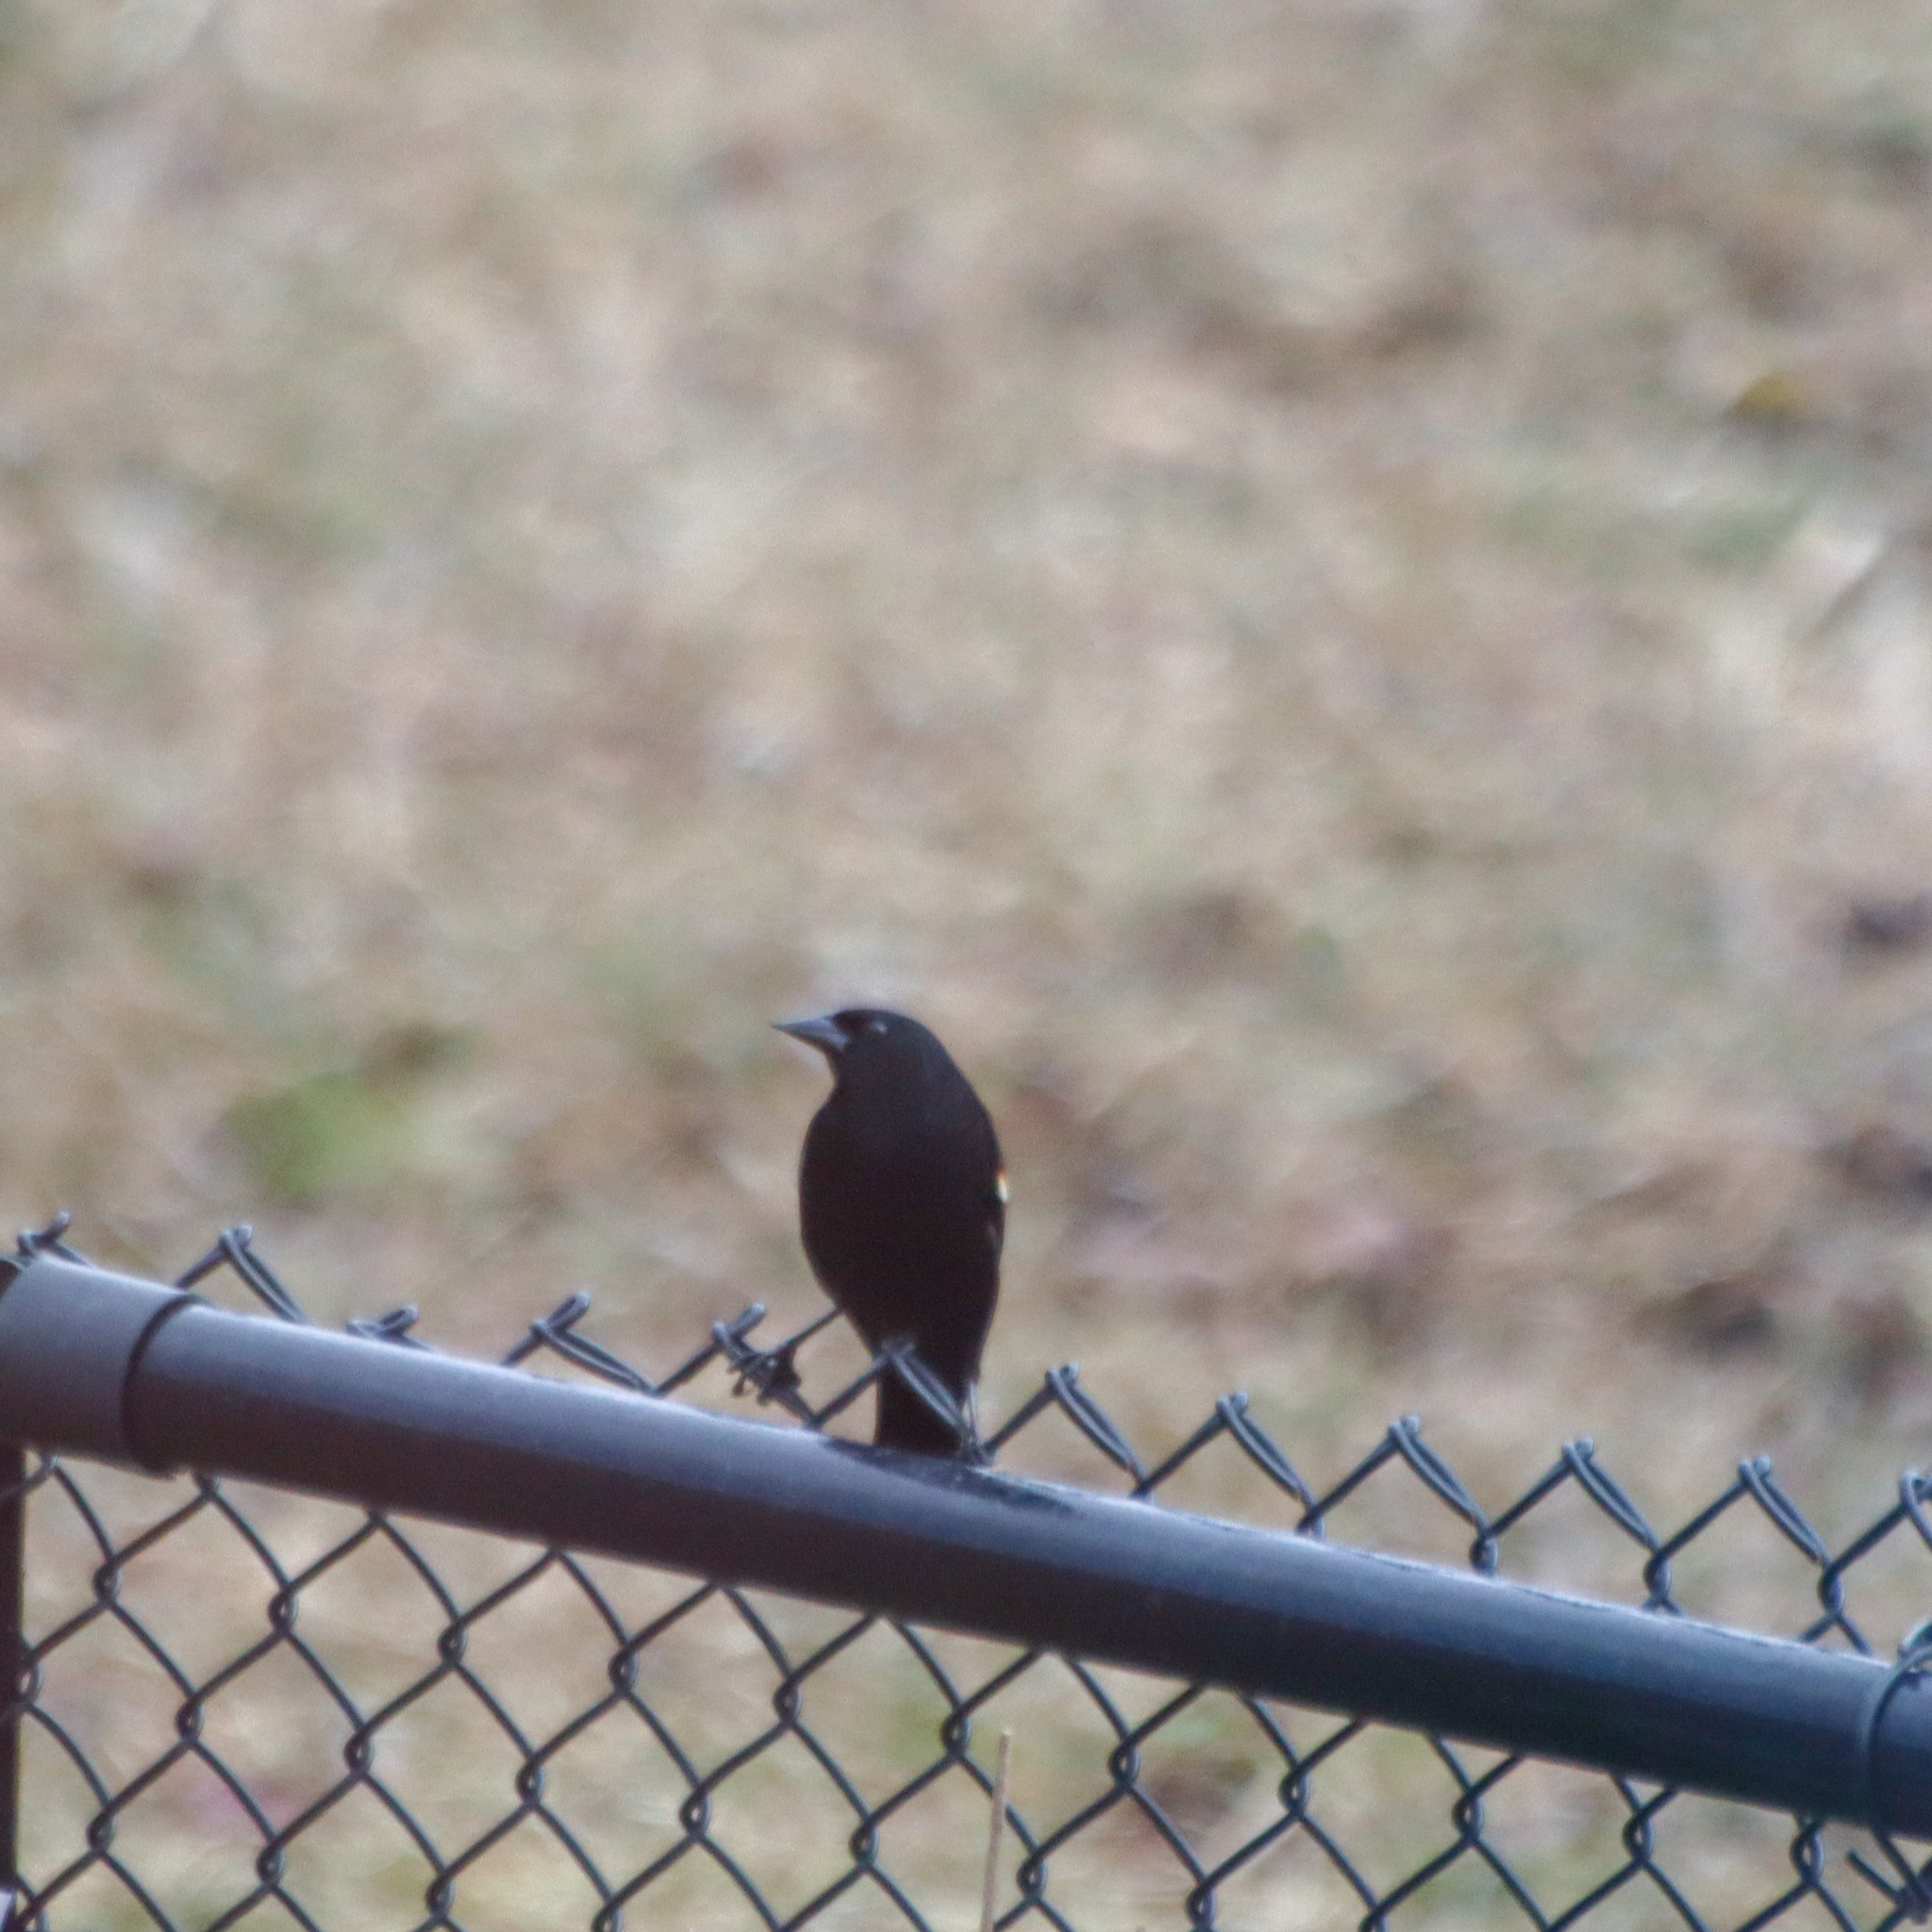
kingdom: Animalia
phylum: Chordata
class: Aves
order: Passeriformes
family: Icteridae
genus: Agelaius
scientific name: Agelaius phoeniceus
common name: Red-winged blackbird
